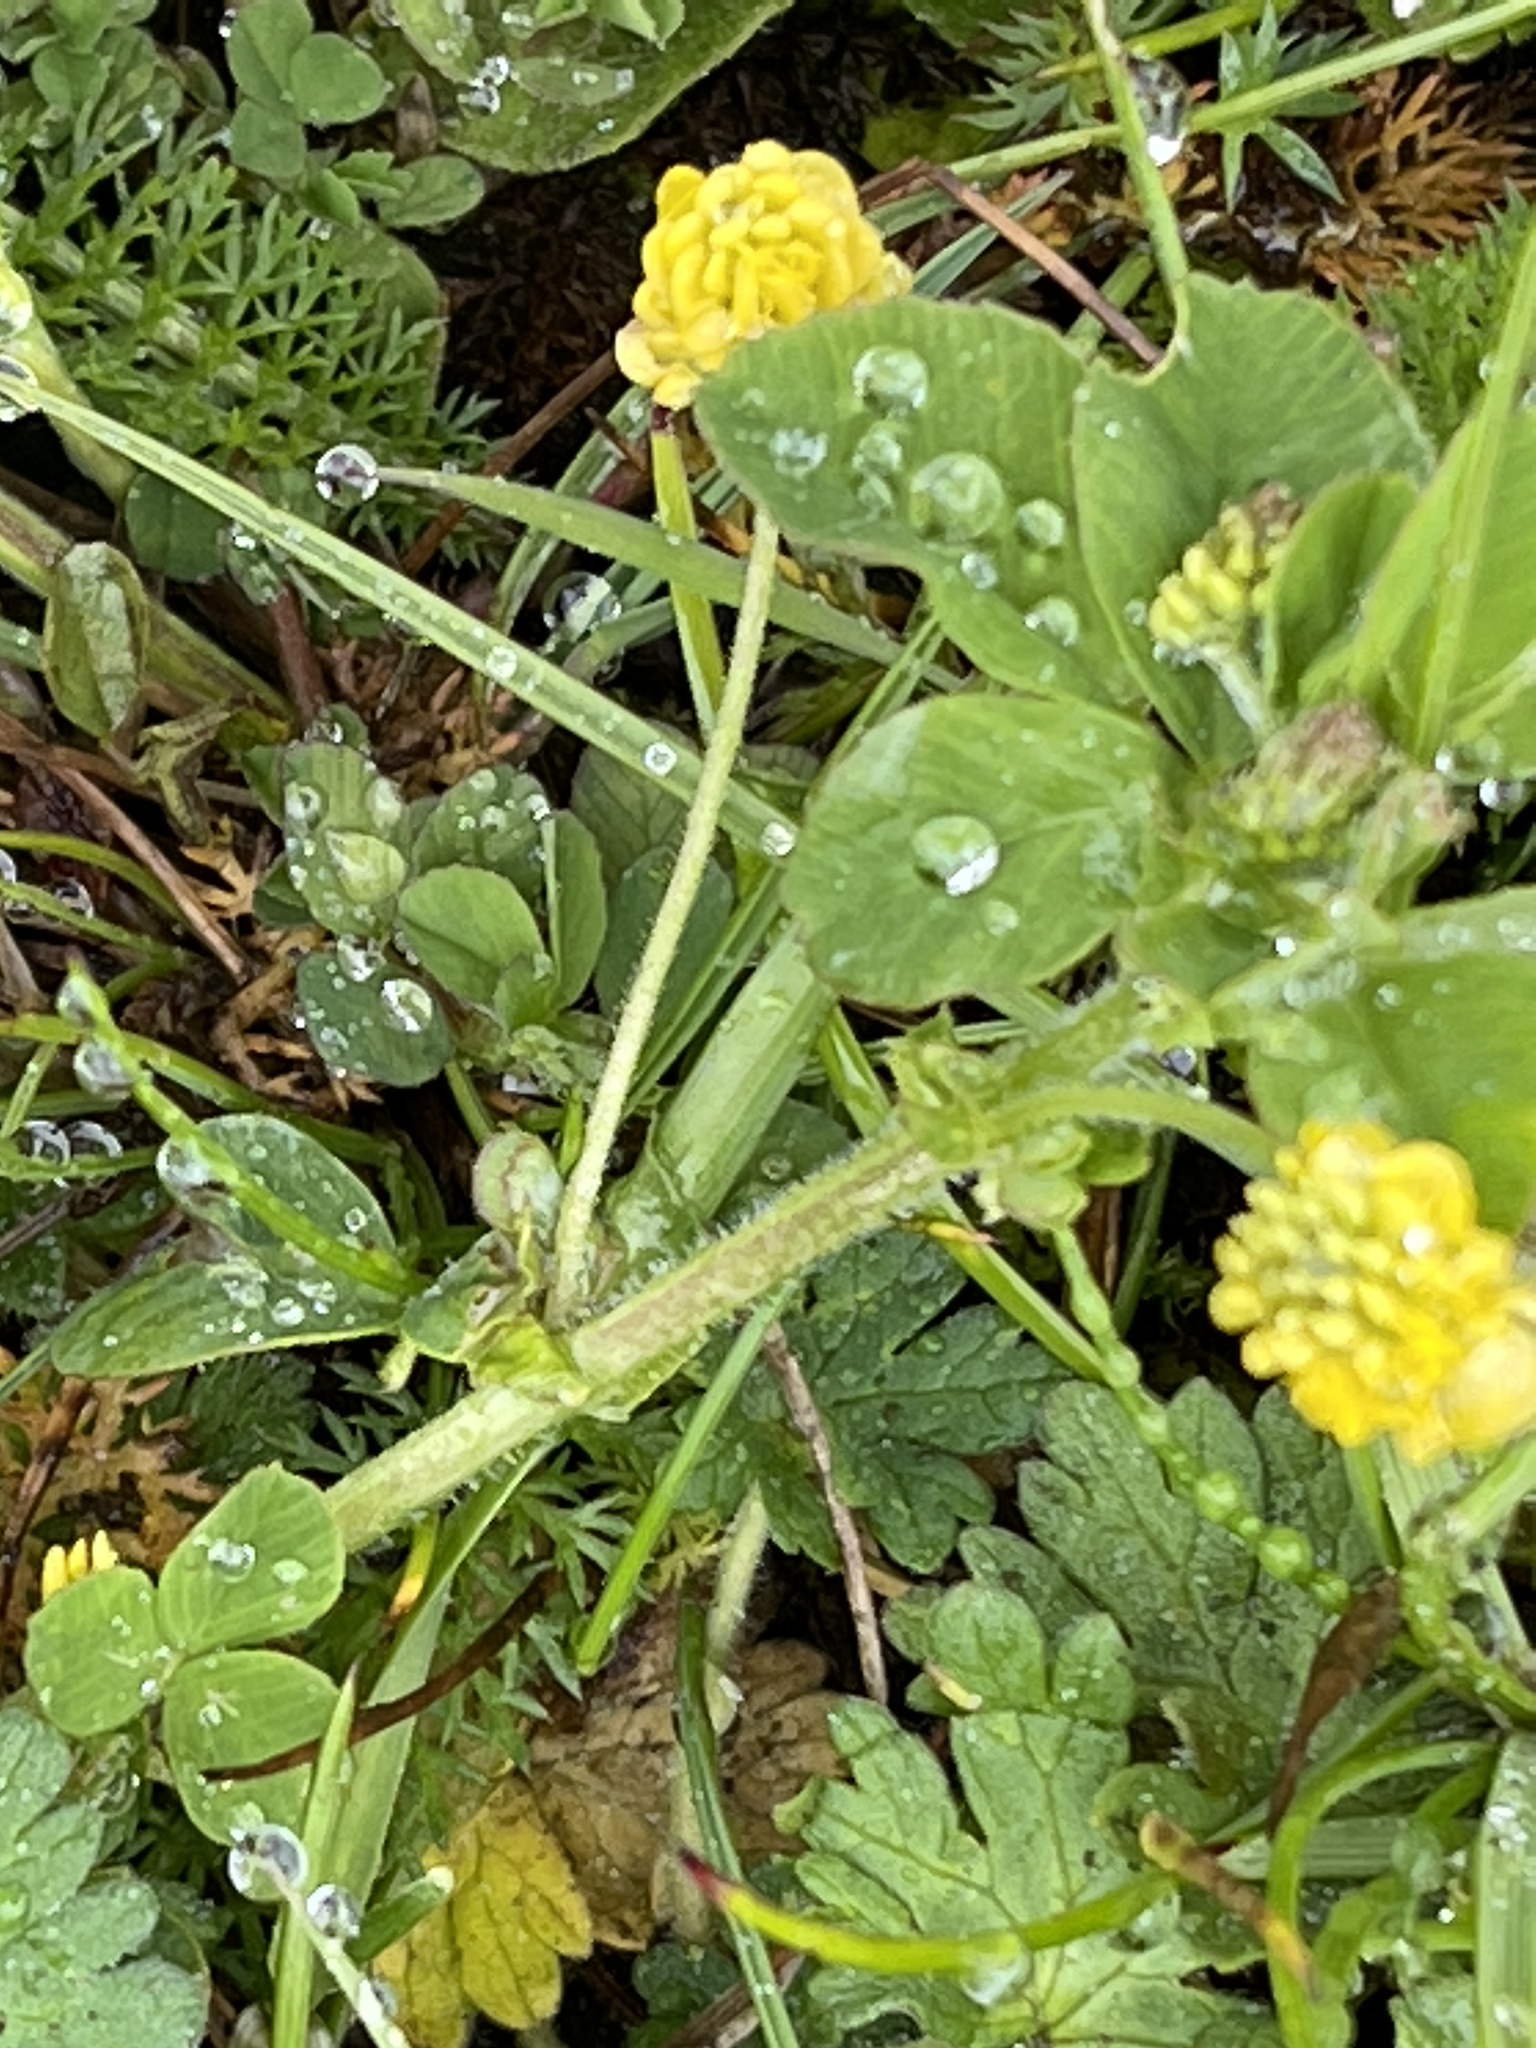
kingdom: Plantae
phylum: Tracheophyta
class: Magnoliopsida
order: Fabales
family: Fabaceae
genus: Medicago
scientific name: Medicago lupulina
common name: Black medick
